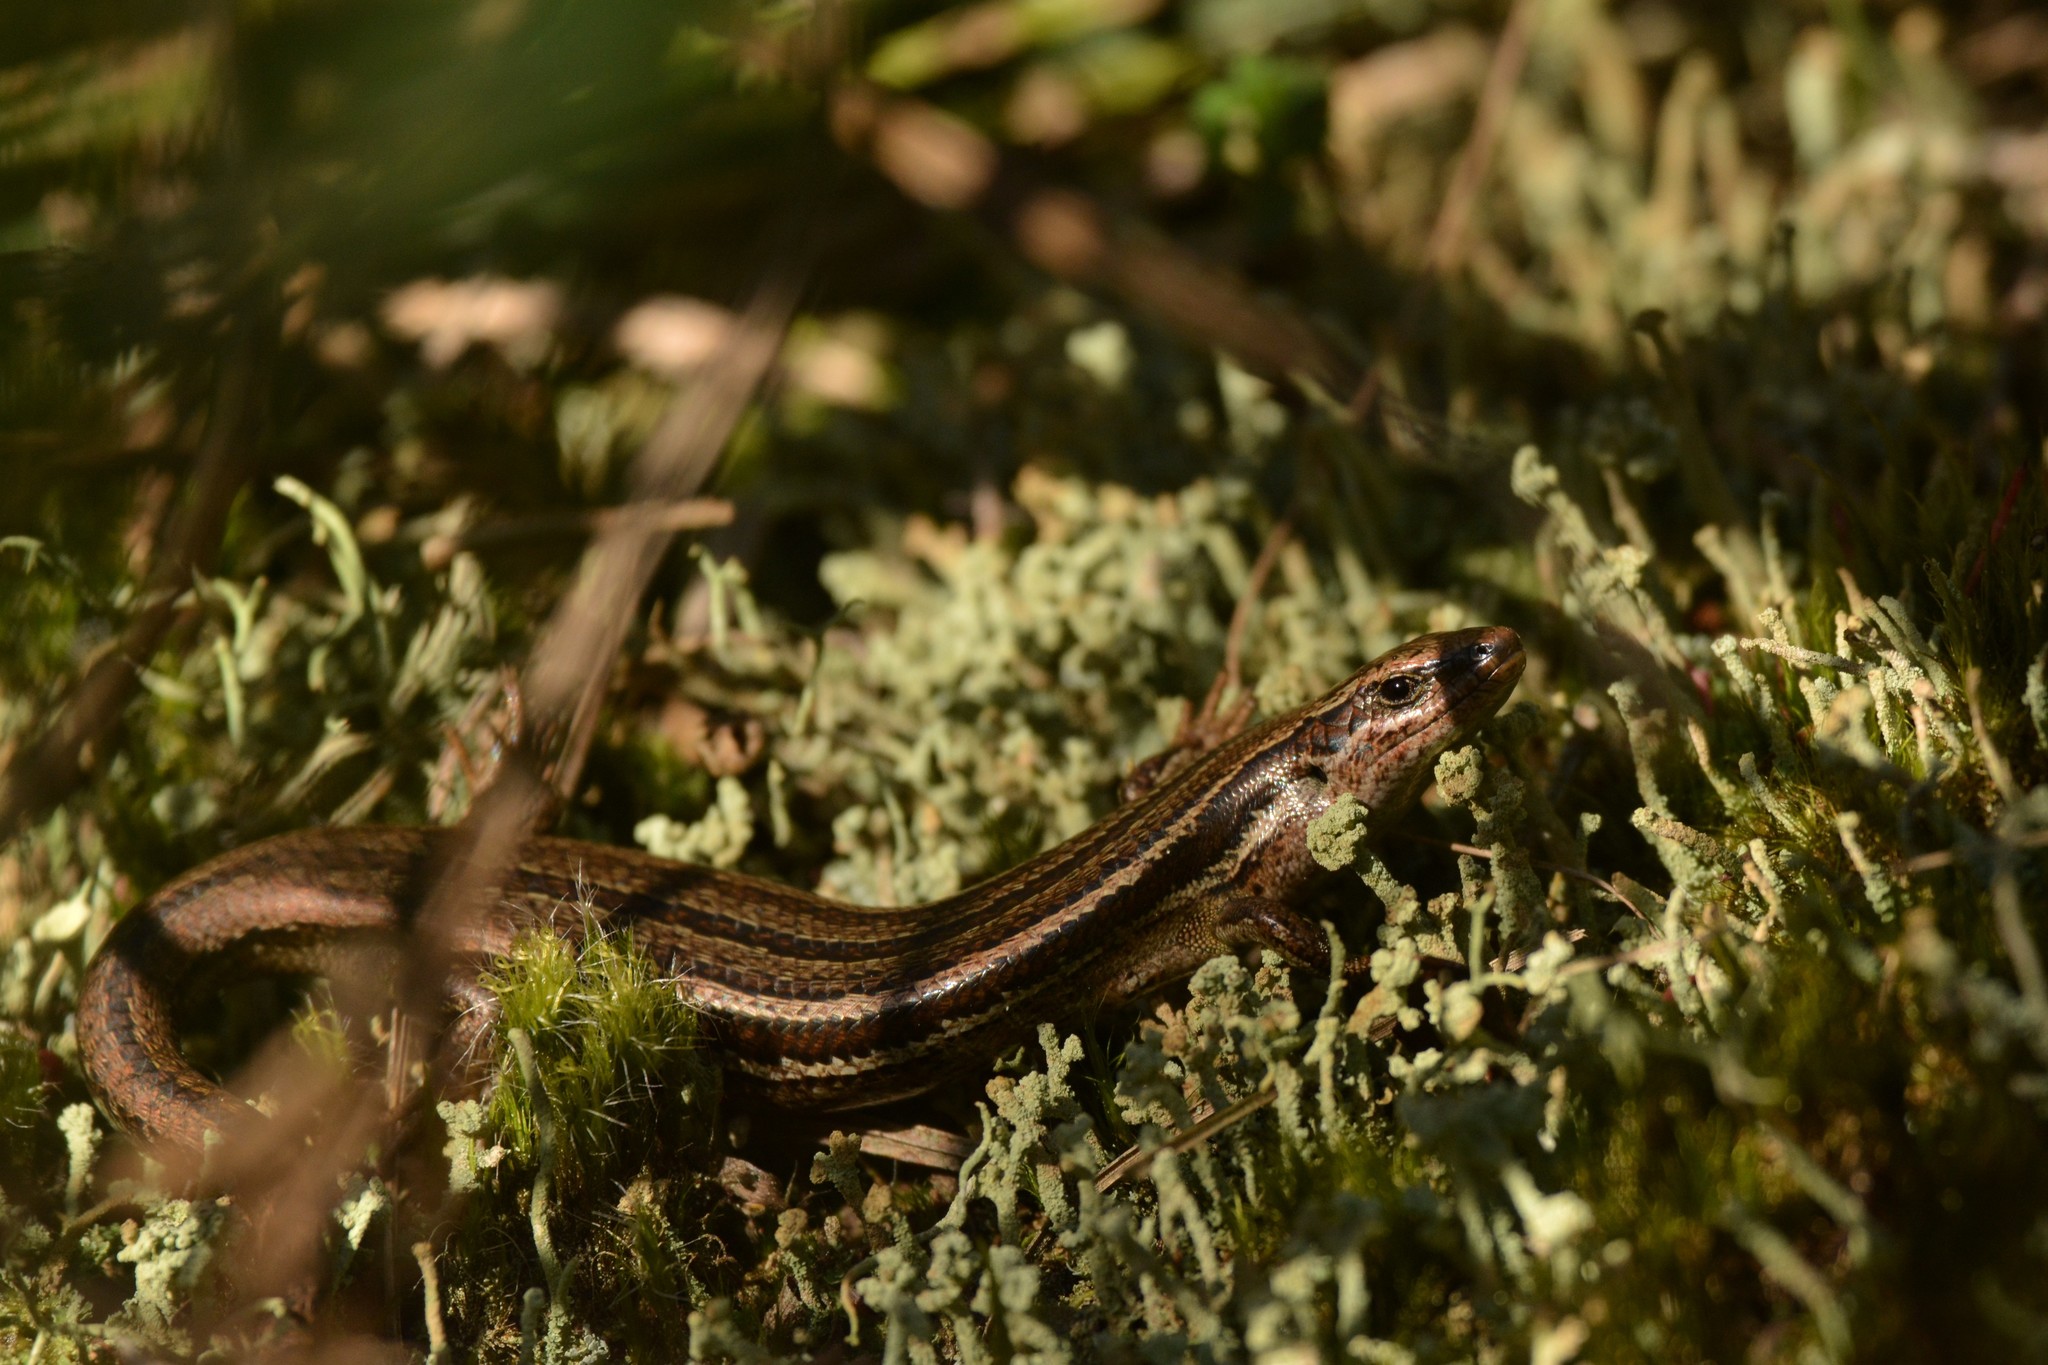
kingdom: Animalia
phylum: Chordata
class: Squamata
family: Scincidae
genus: Oligosoma
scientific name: Oligosoma polychroma
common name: Common new zealand skink
